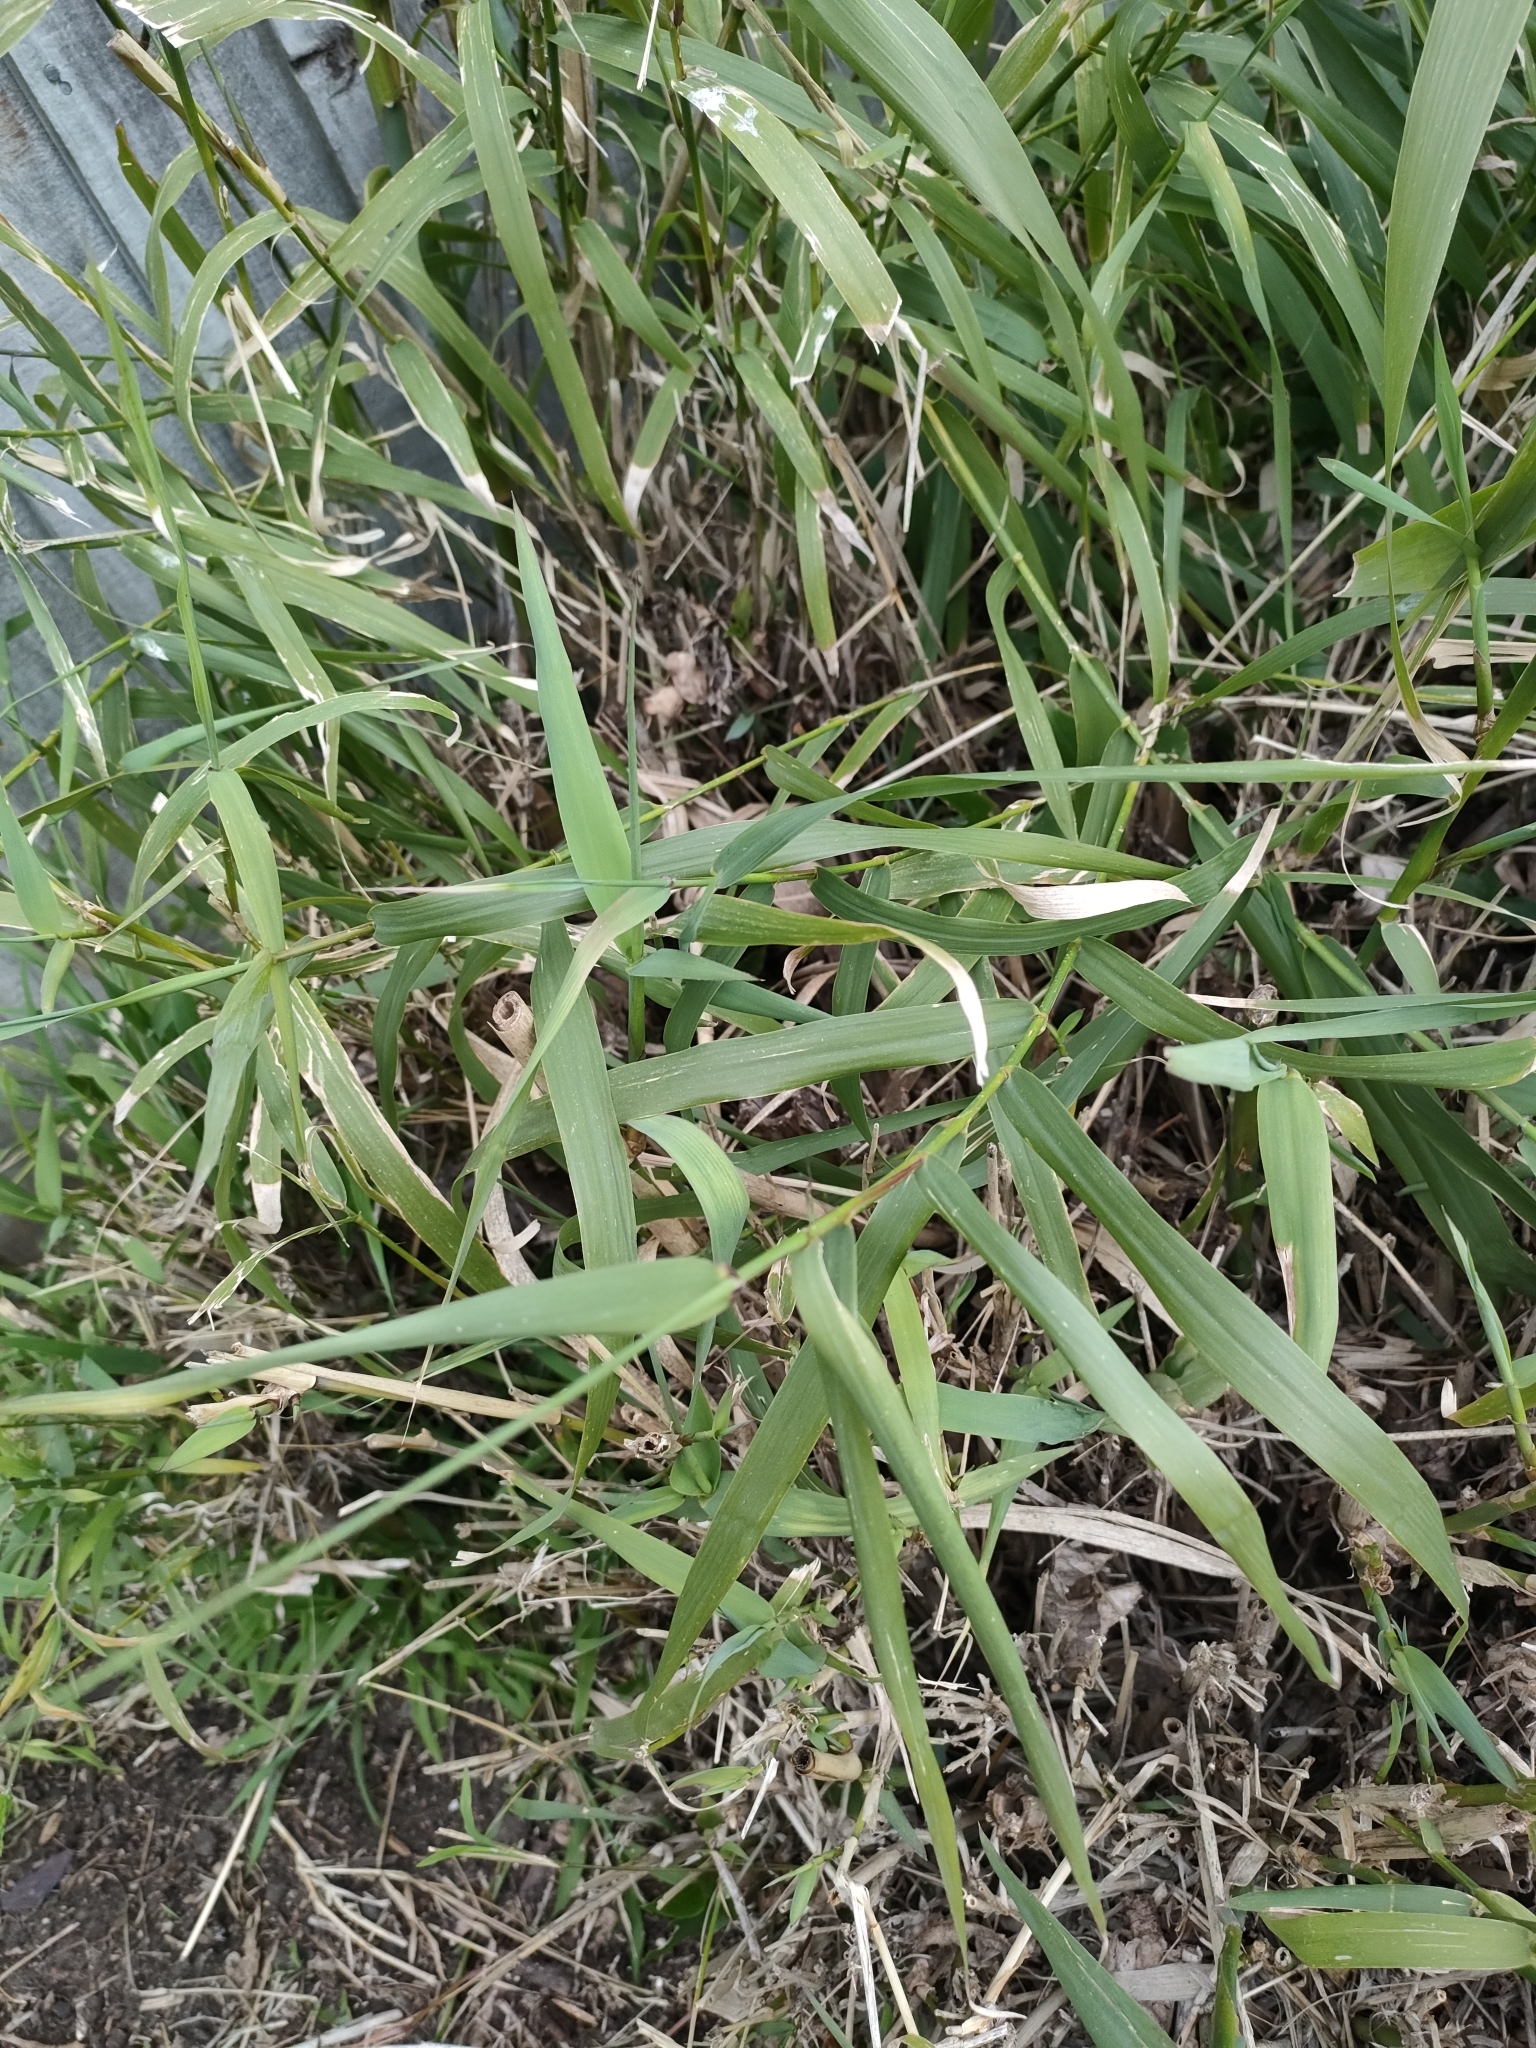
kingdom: Plantae
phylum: Tracheophyta
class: Liliopsida
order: Poales
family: Poaceae
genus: Arundo
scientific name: Arundo donax
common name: Giant reed
